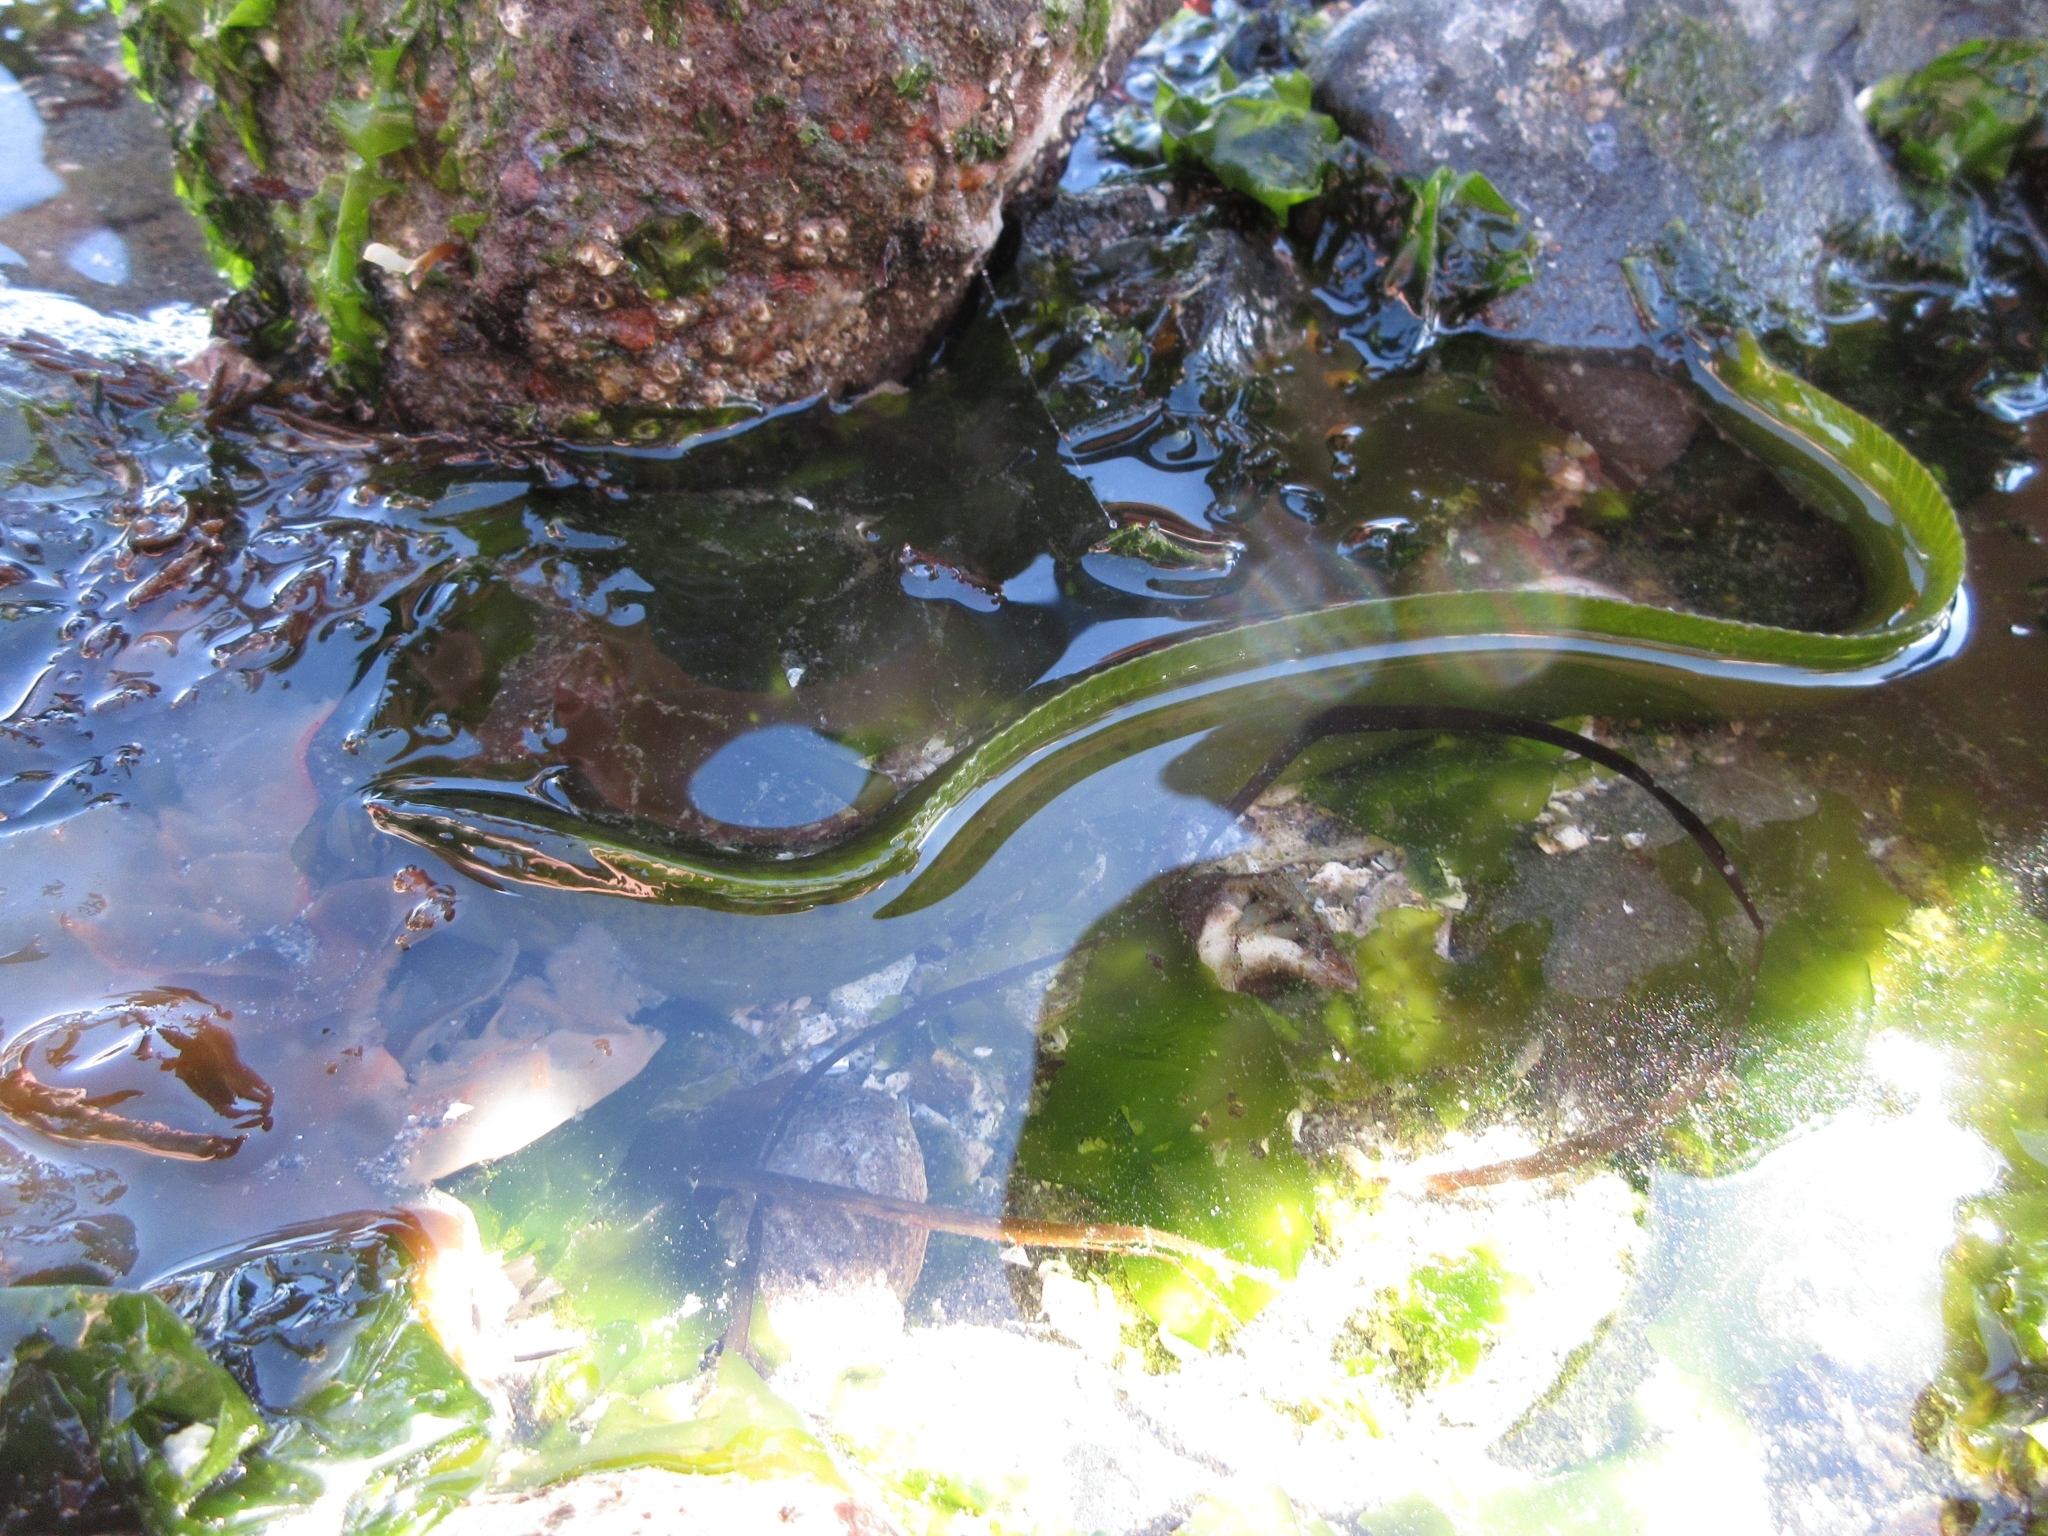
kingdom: Animalia
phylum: Chordata
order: Perciformes
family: Pholidae
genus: Apodichthys
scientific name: Apodichthys flavidus
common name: Penpoint gunnel
